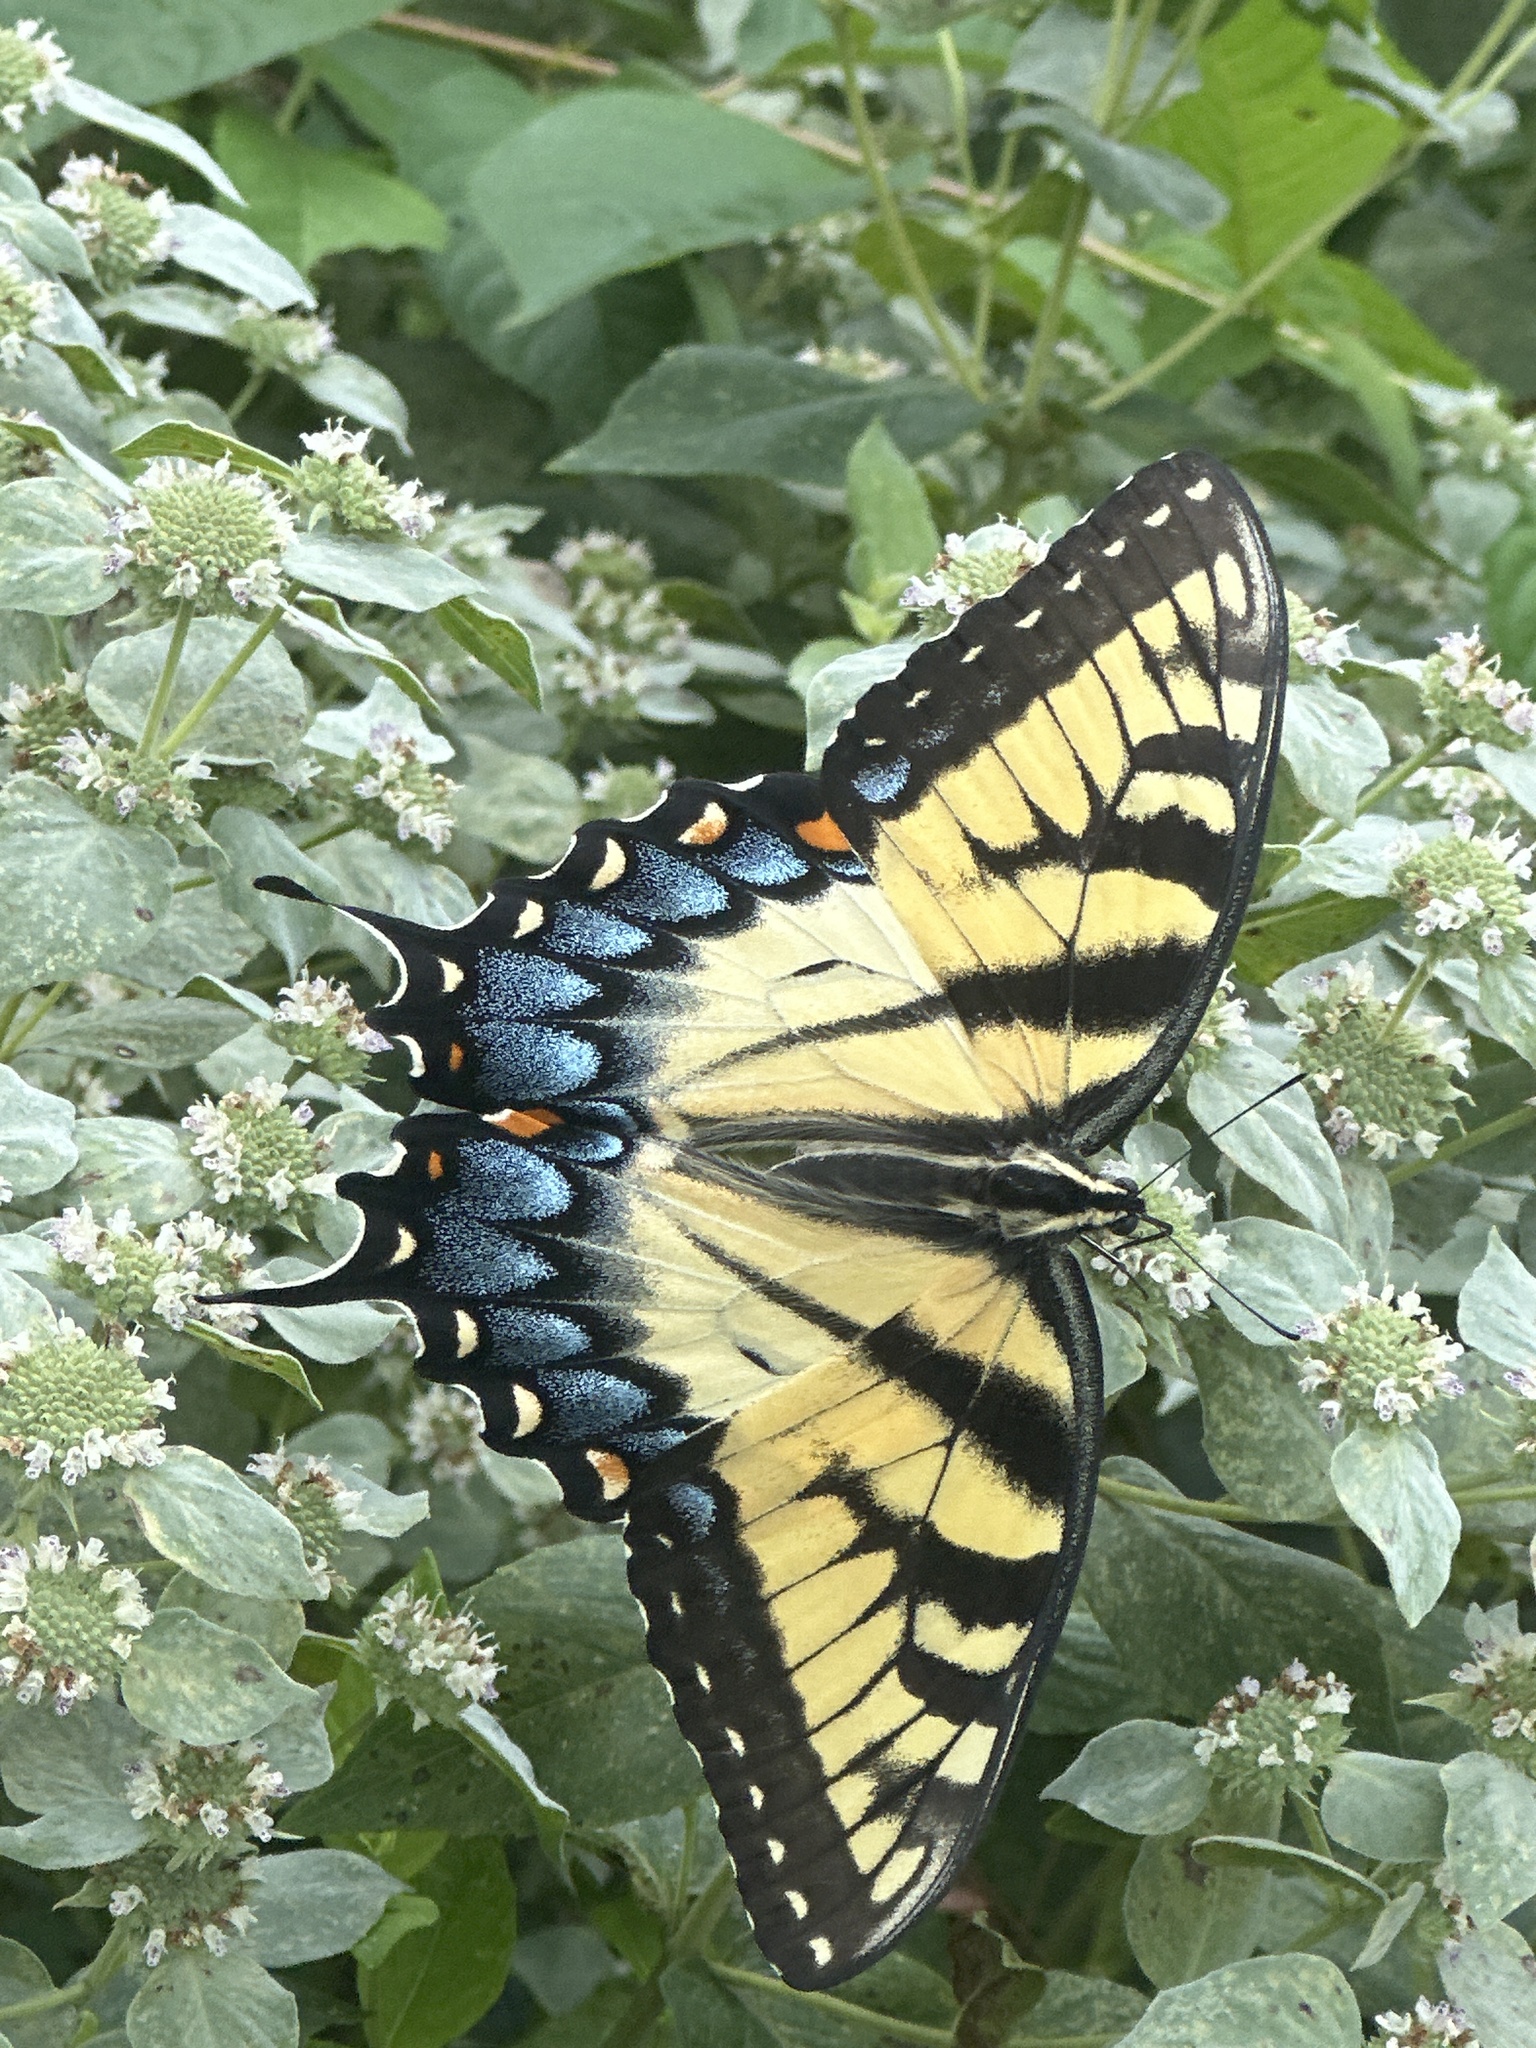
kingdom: Animalia
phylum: Arthropoda
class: Insecta
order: Lepidoptera
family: Papilionidae
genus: Papilio
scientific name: Papilio glaucus
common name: Tiger swallowtail
